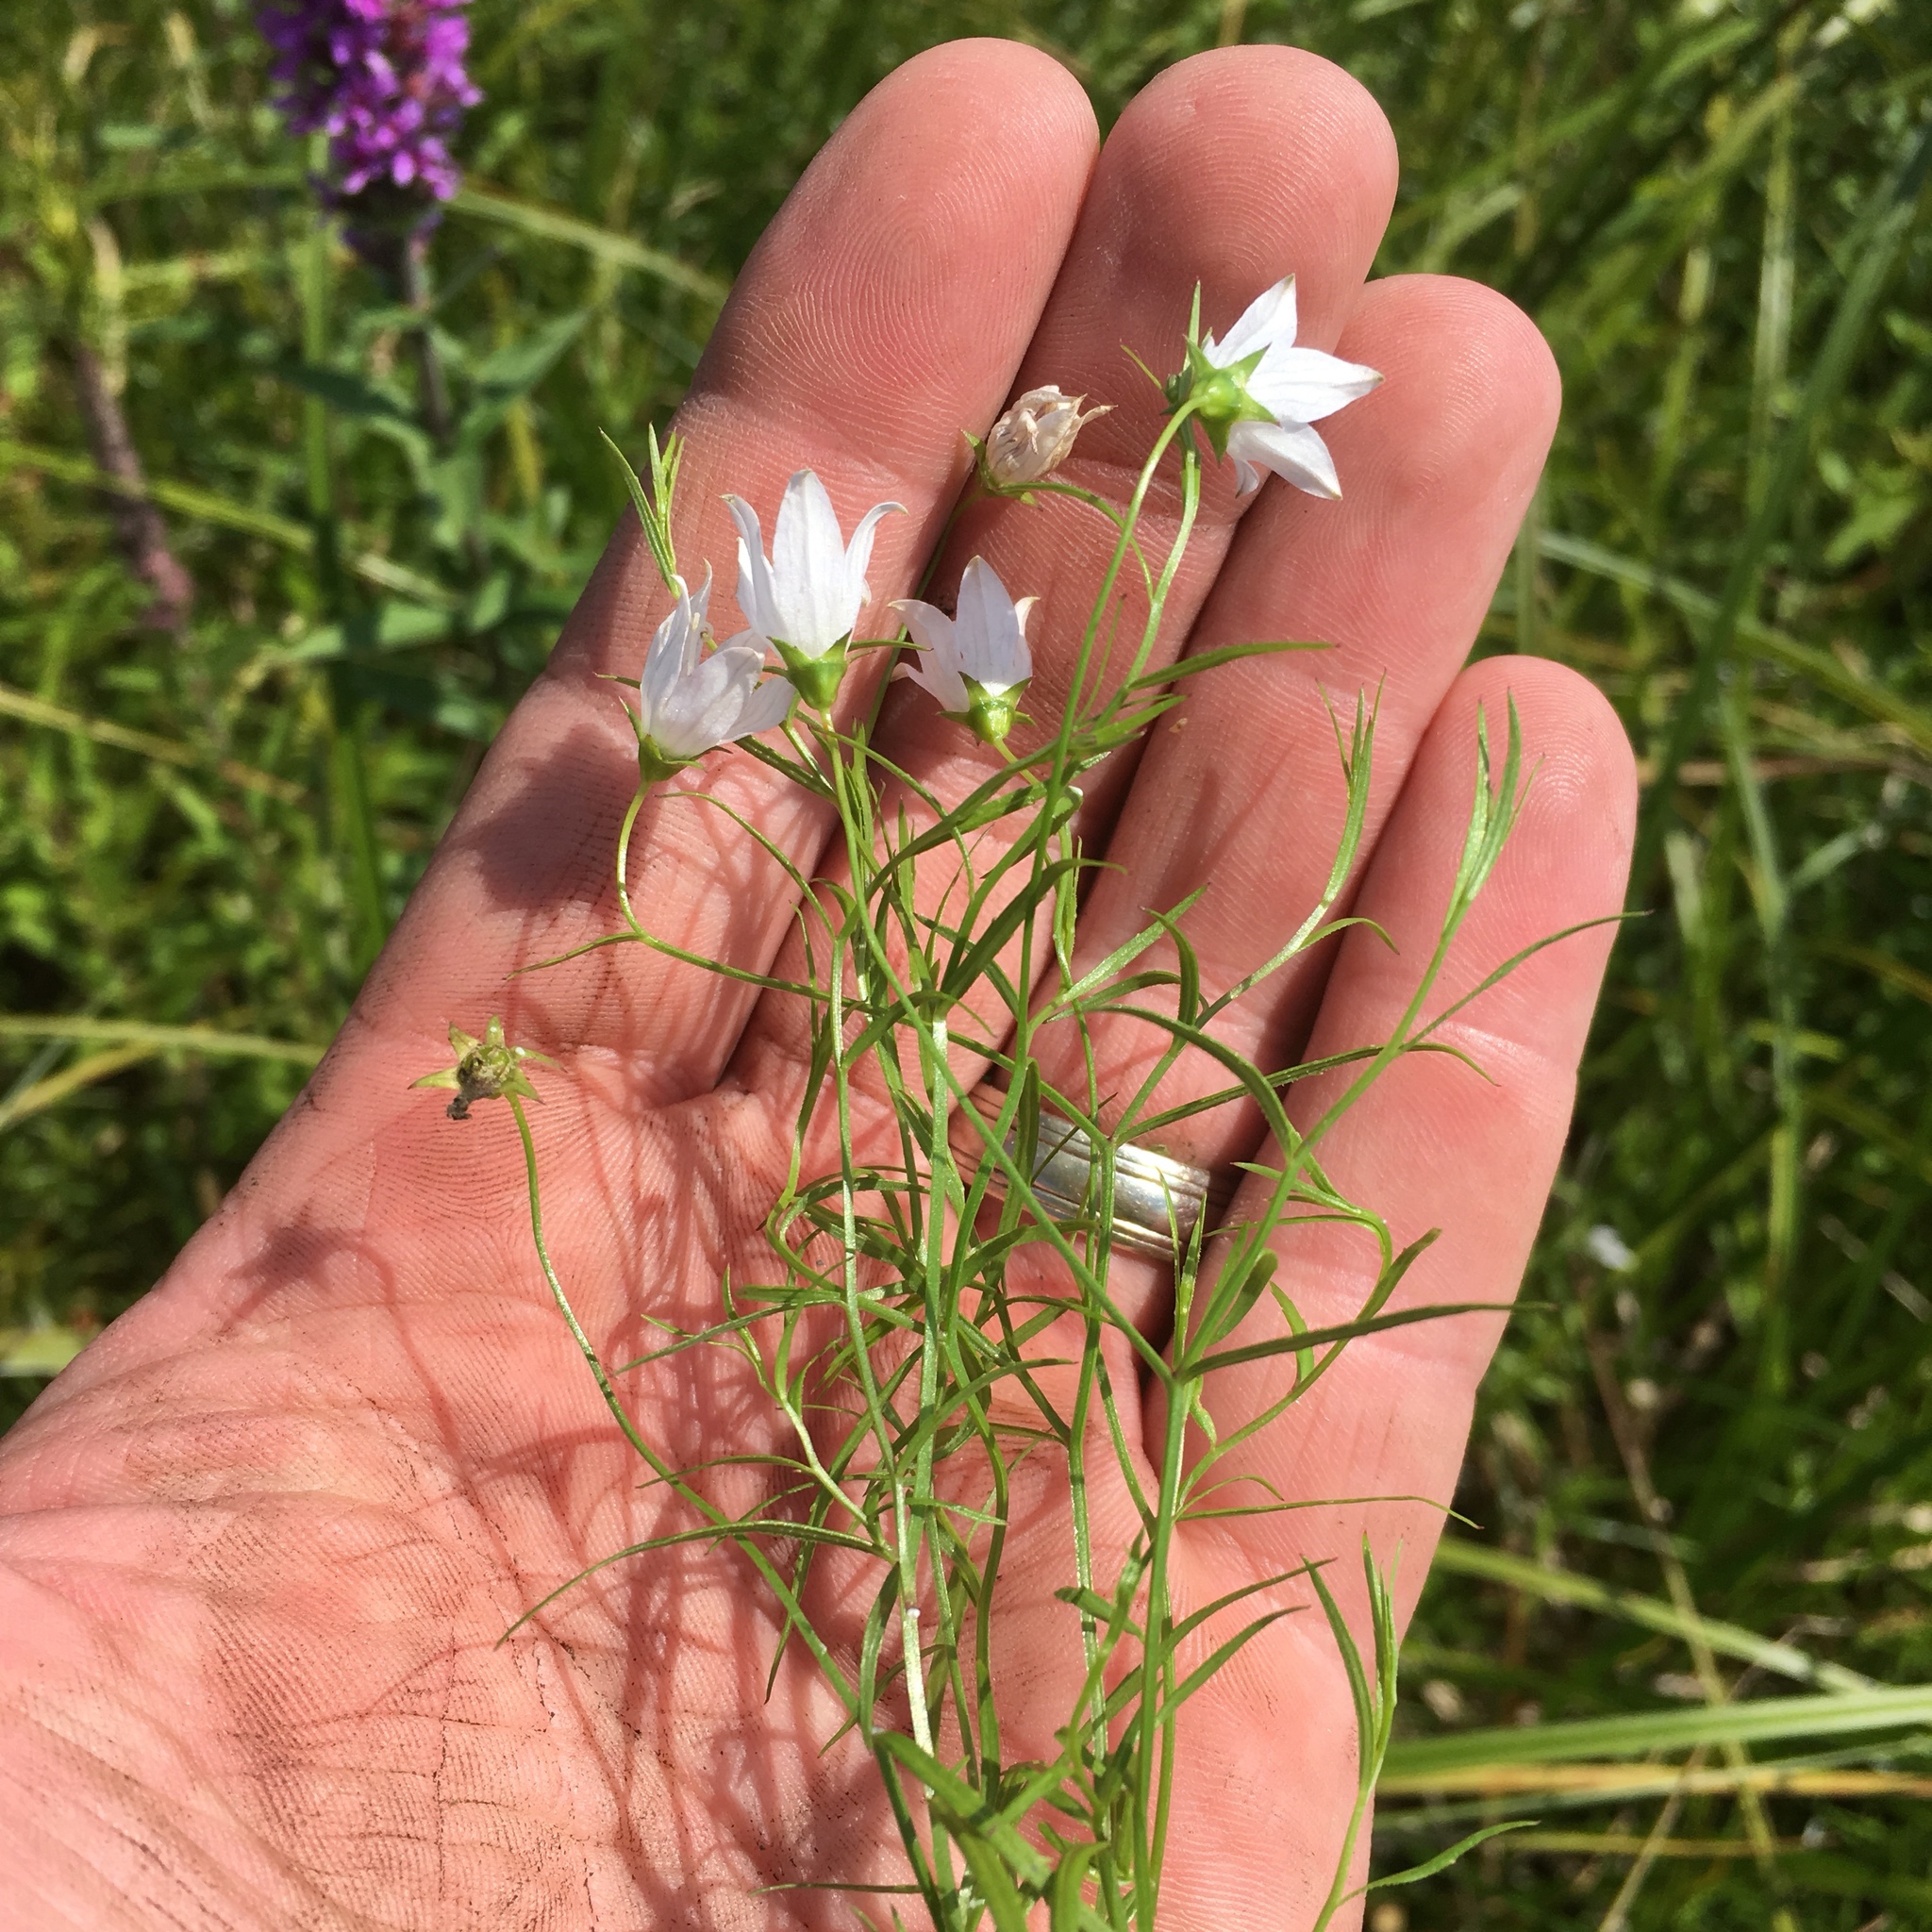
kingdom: Plantae
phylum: Tracheophyta
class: Magnoliopsida
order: Asterales
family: Campanulaceae
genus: Palustricodon
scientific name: Palustricodon aparinoides
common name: Bedstraw bellflower
